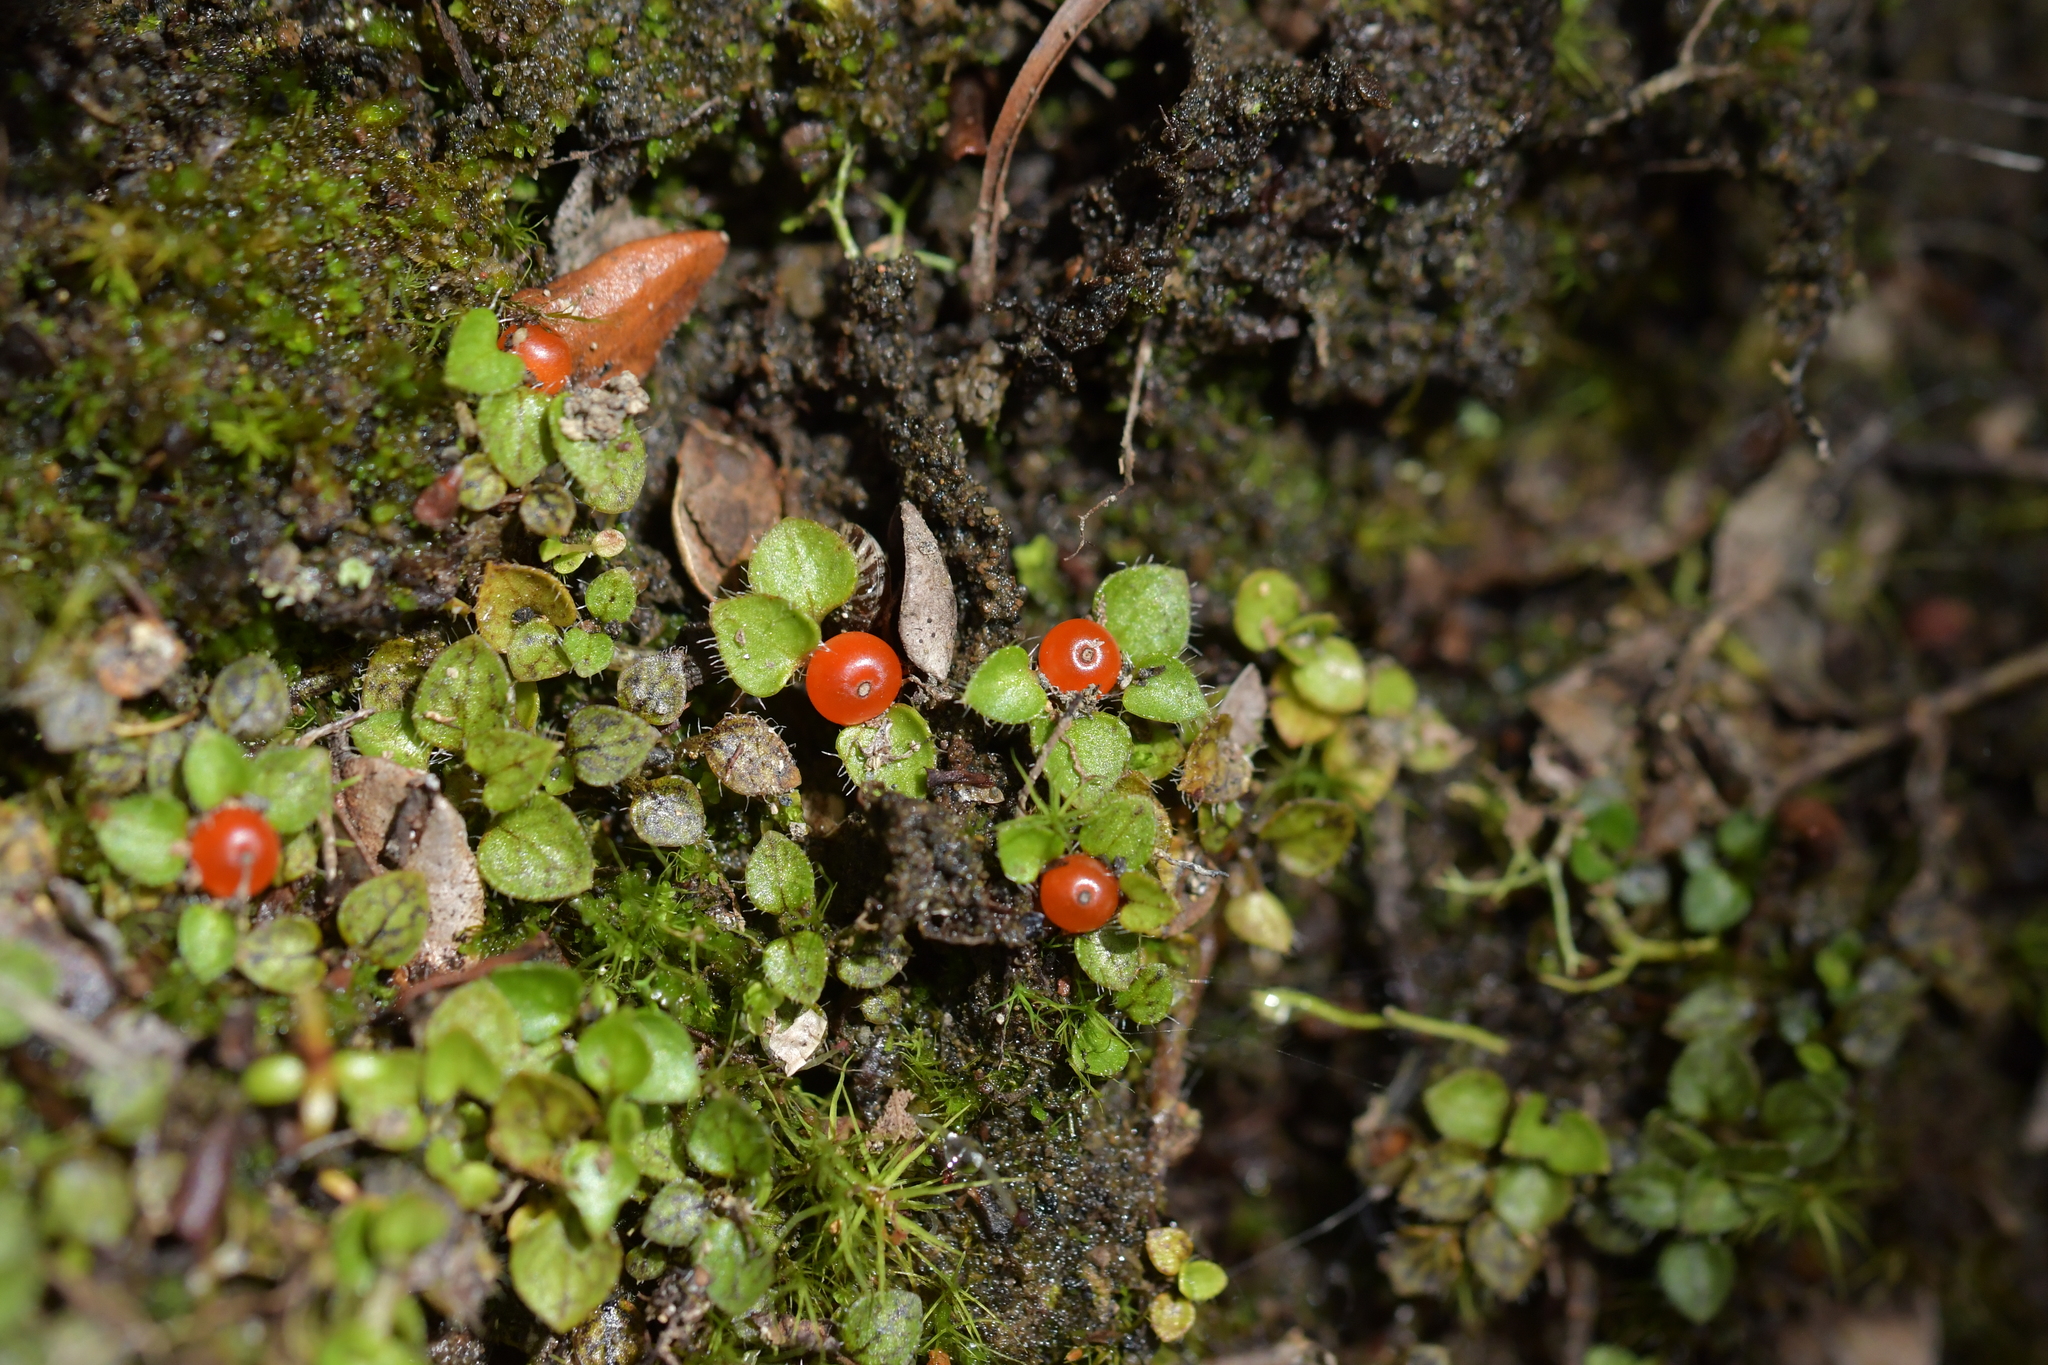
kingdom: Plantae
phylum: Tracheophyta
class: Magnoliopsida
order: Gentianales
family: Rubiaceae
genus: Nertera
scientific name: Nertera ciliata
